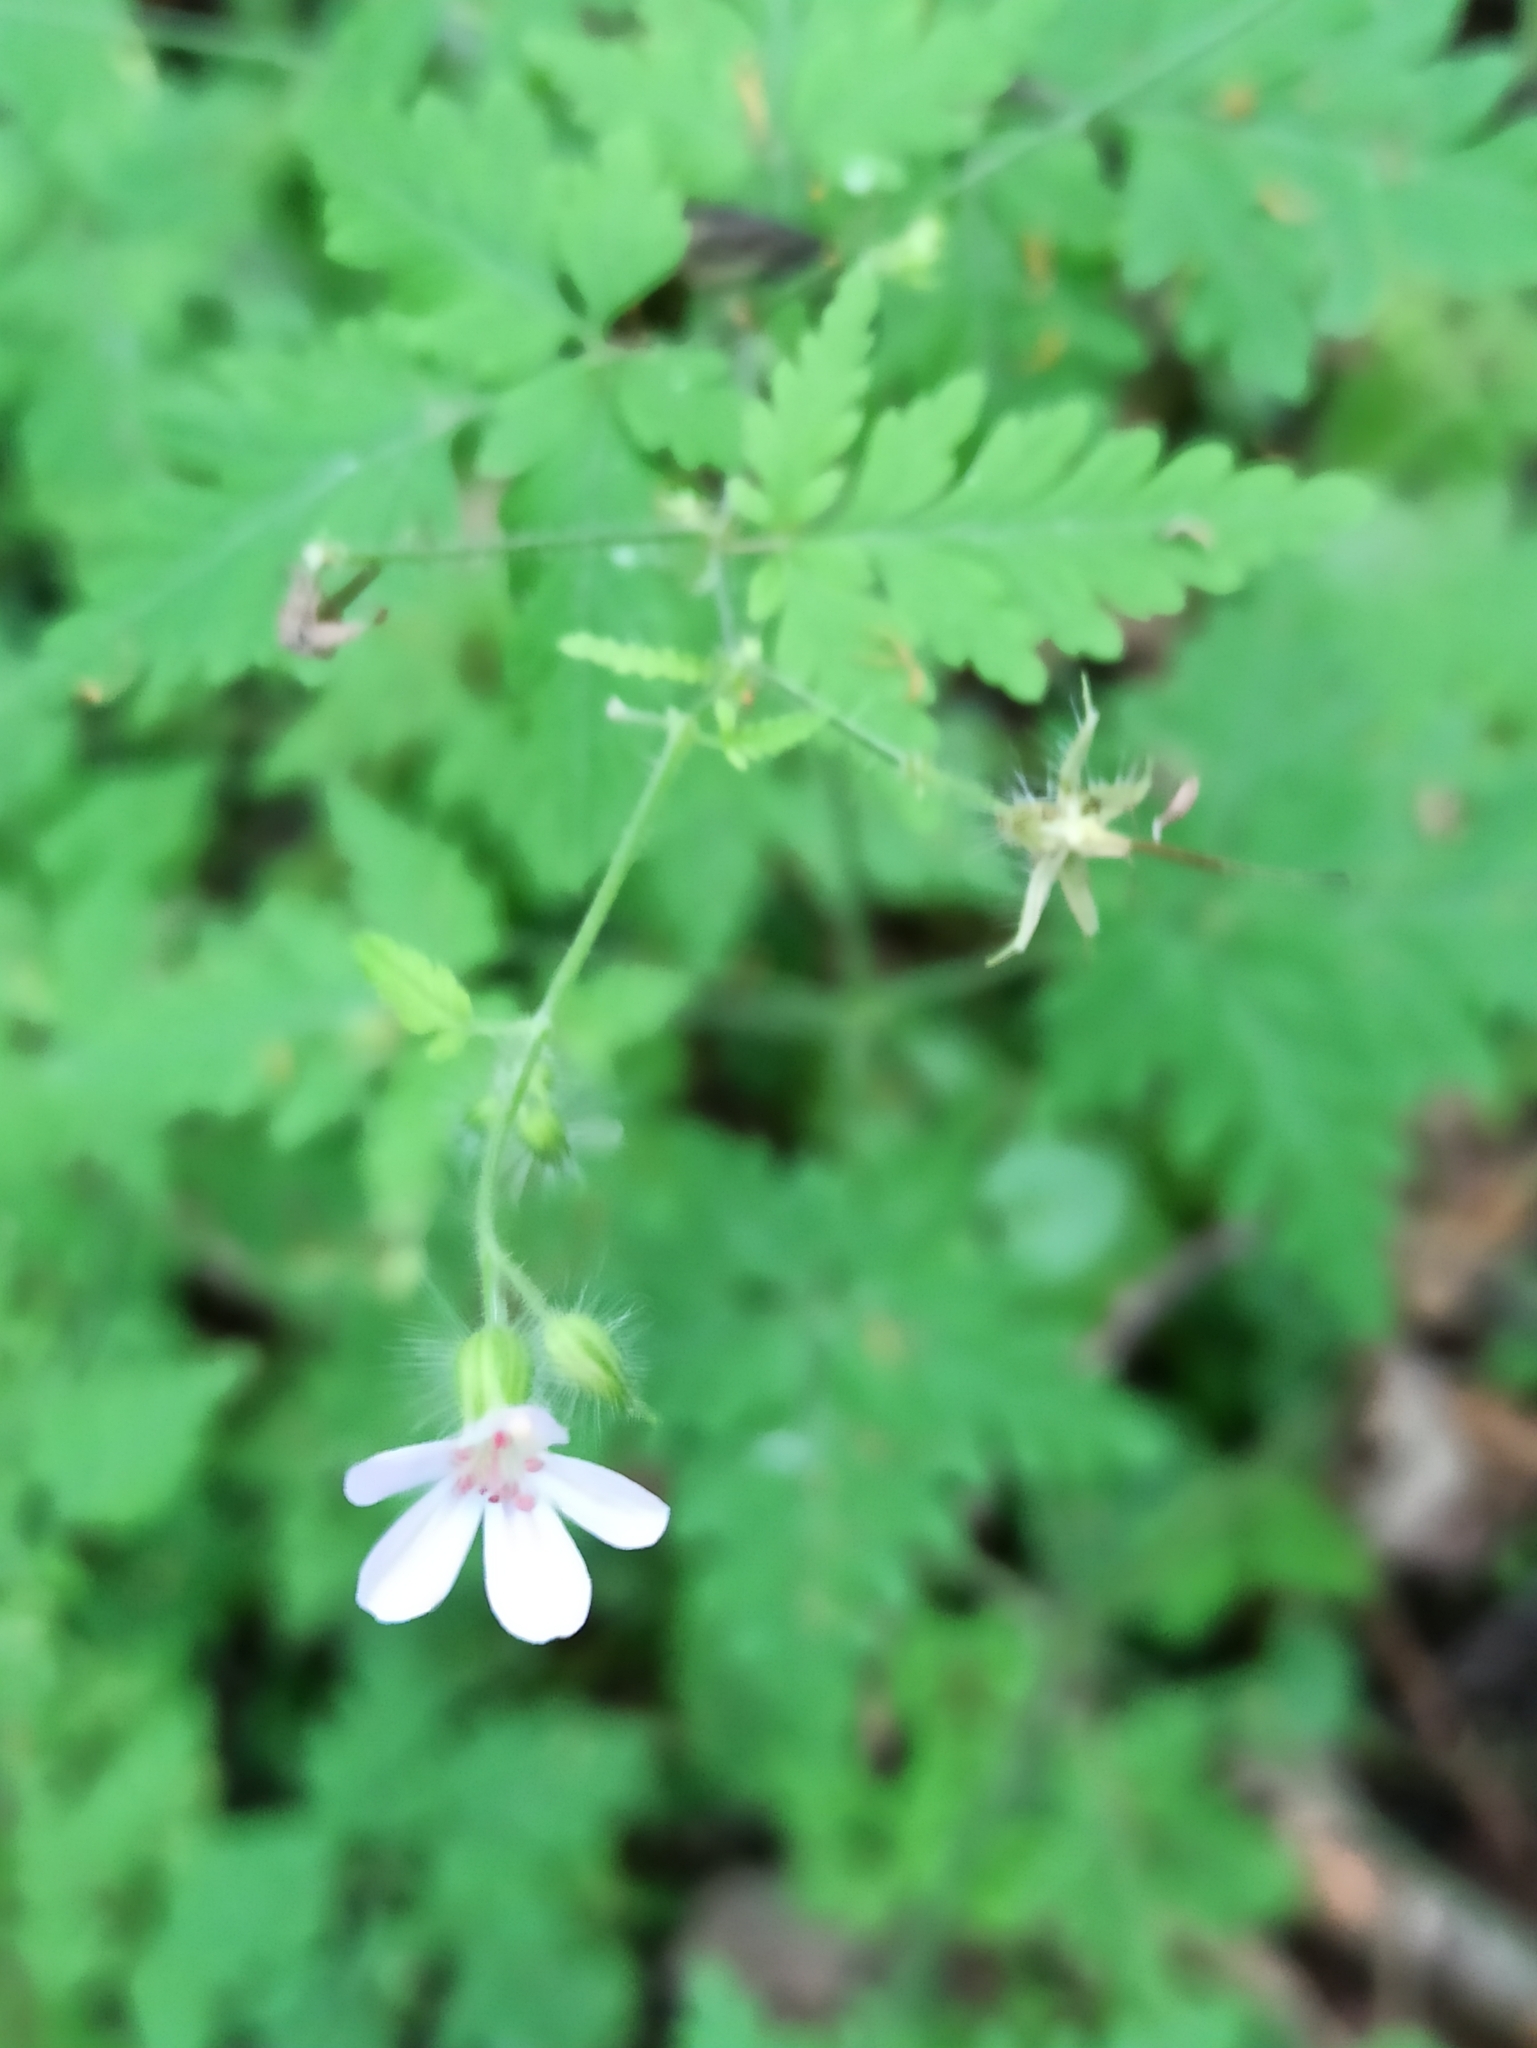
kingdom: Plantae
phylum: Tracheophyta
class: Magnoliopsida
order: Geraniales
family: Geraniaceae
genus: Geranium
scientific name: Geranium robertianum
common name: Herb-robert
